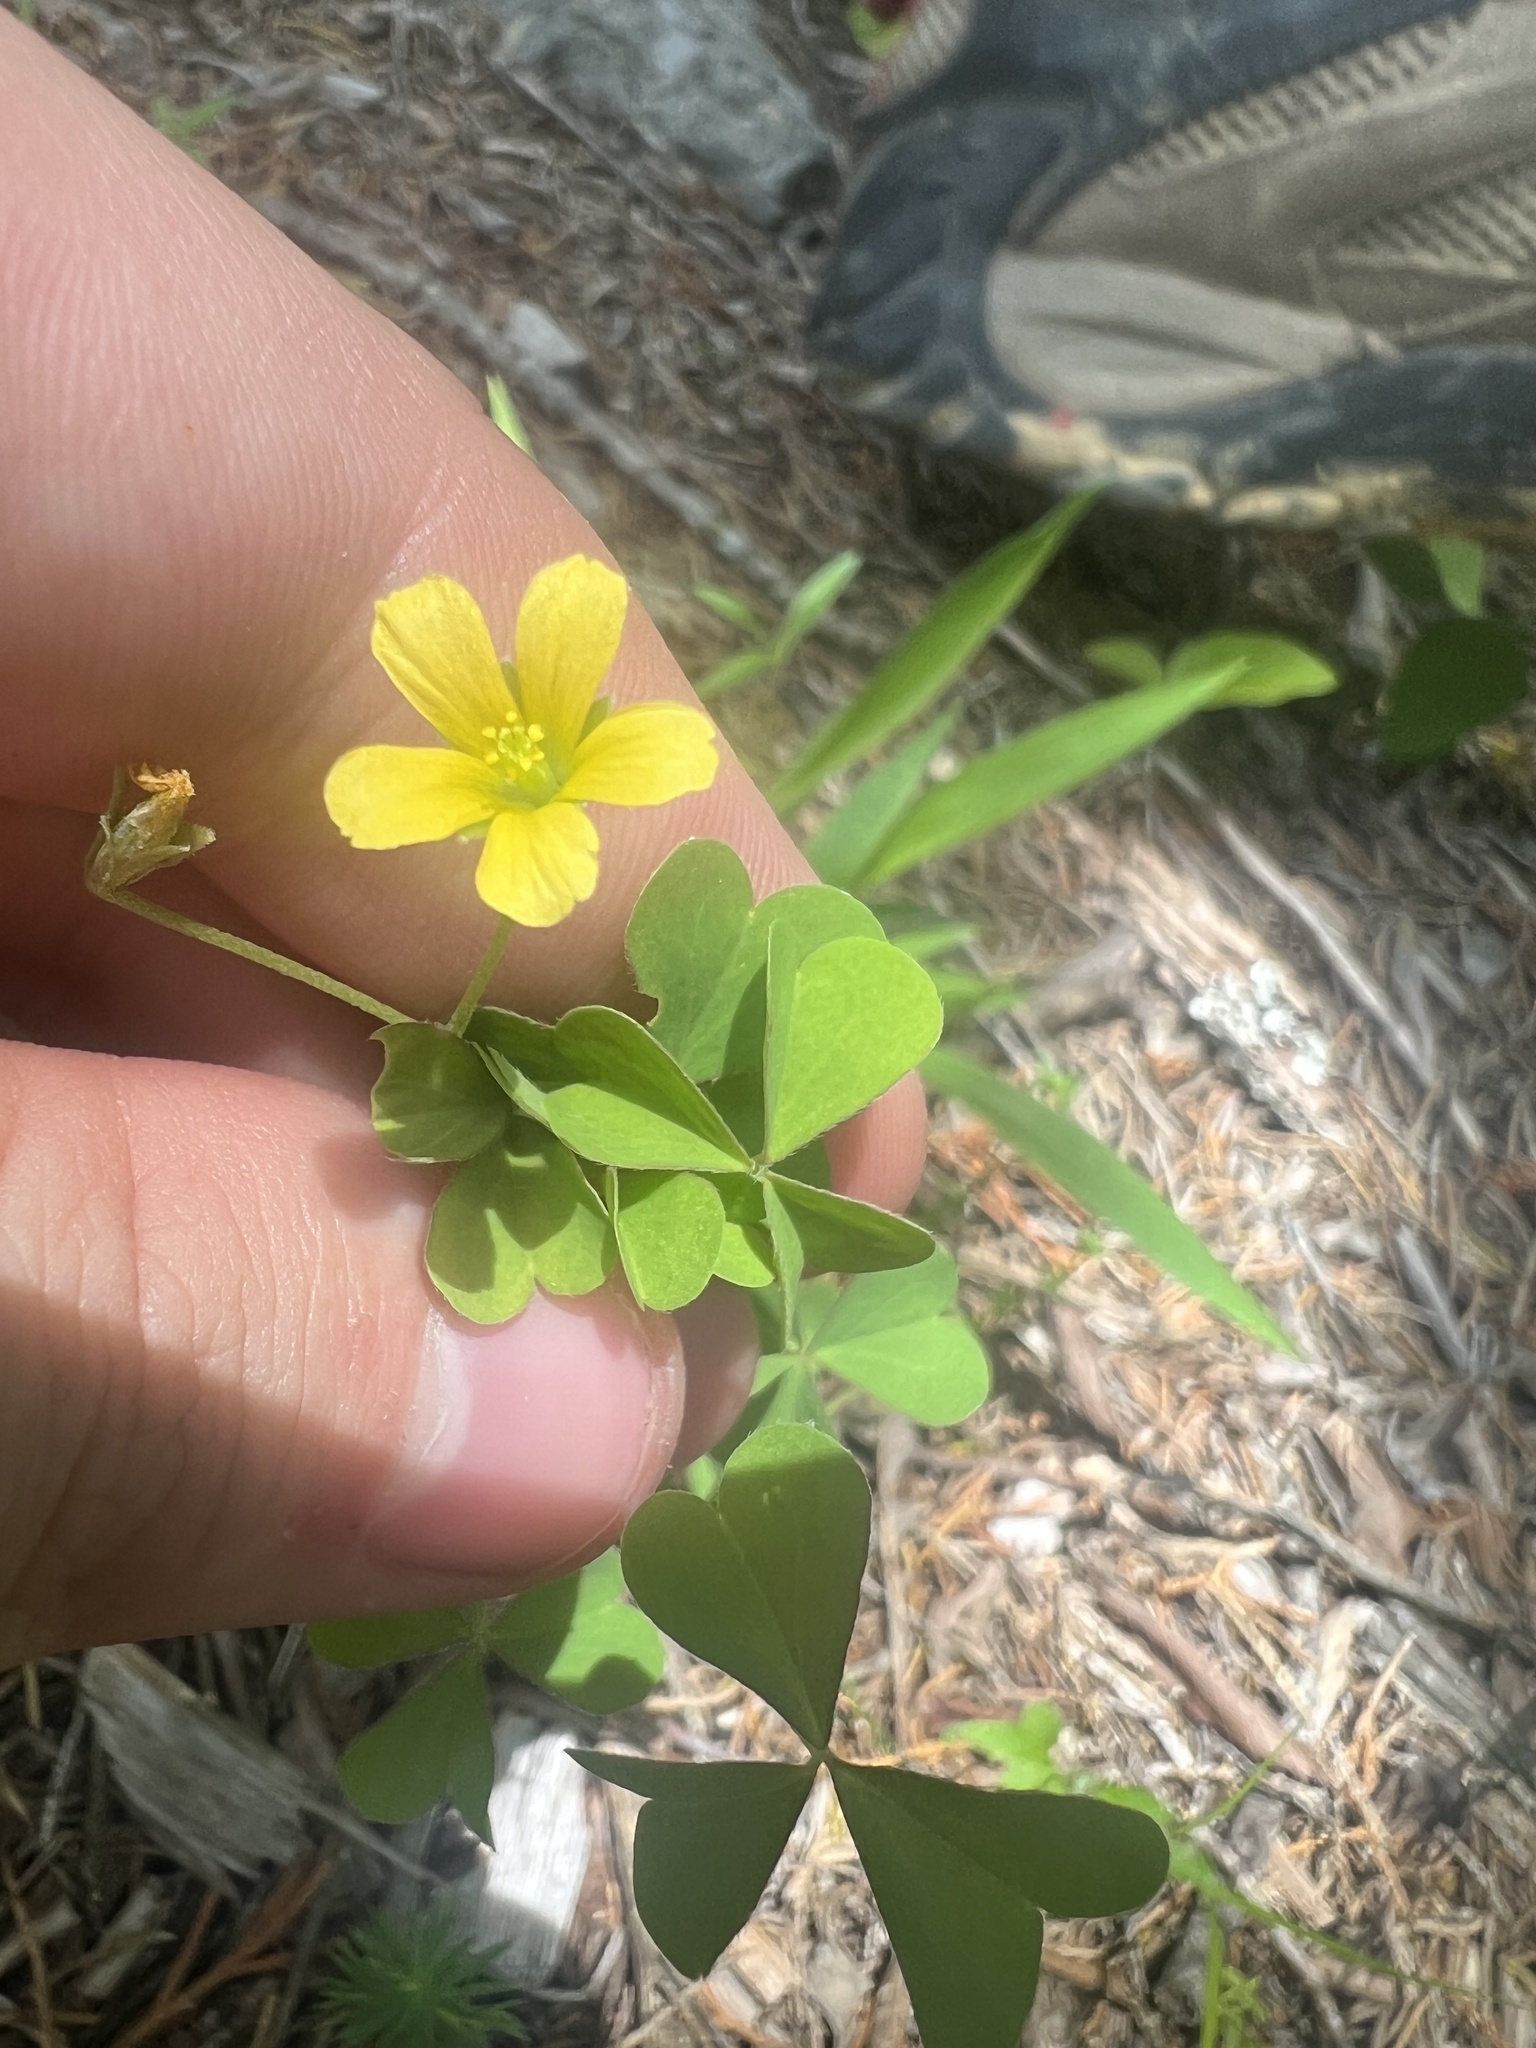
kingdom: Plantae
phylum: Tracheophyta
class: Magnoliopsida
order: Oxalidales
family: Oxalidaceae
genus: Oxalis
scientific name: Oxalis dillenii
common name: Sussex yellow-sorrel
